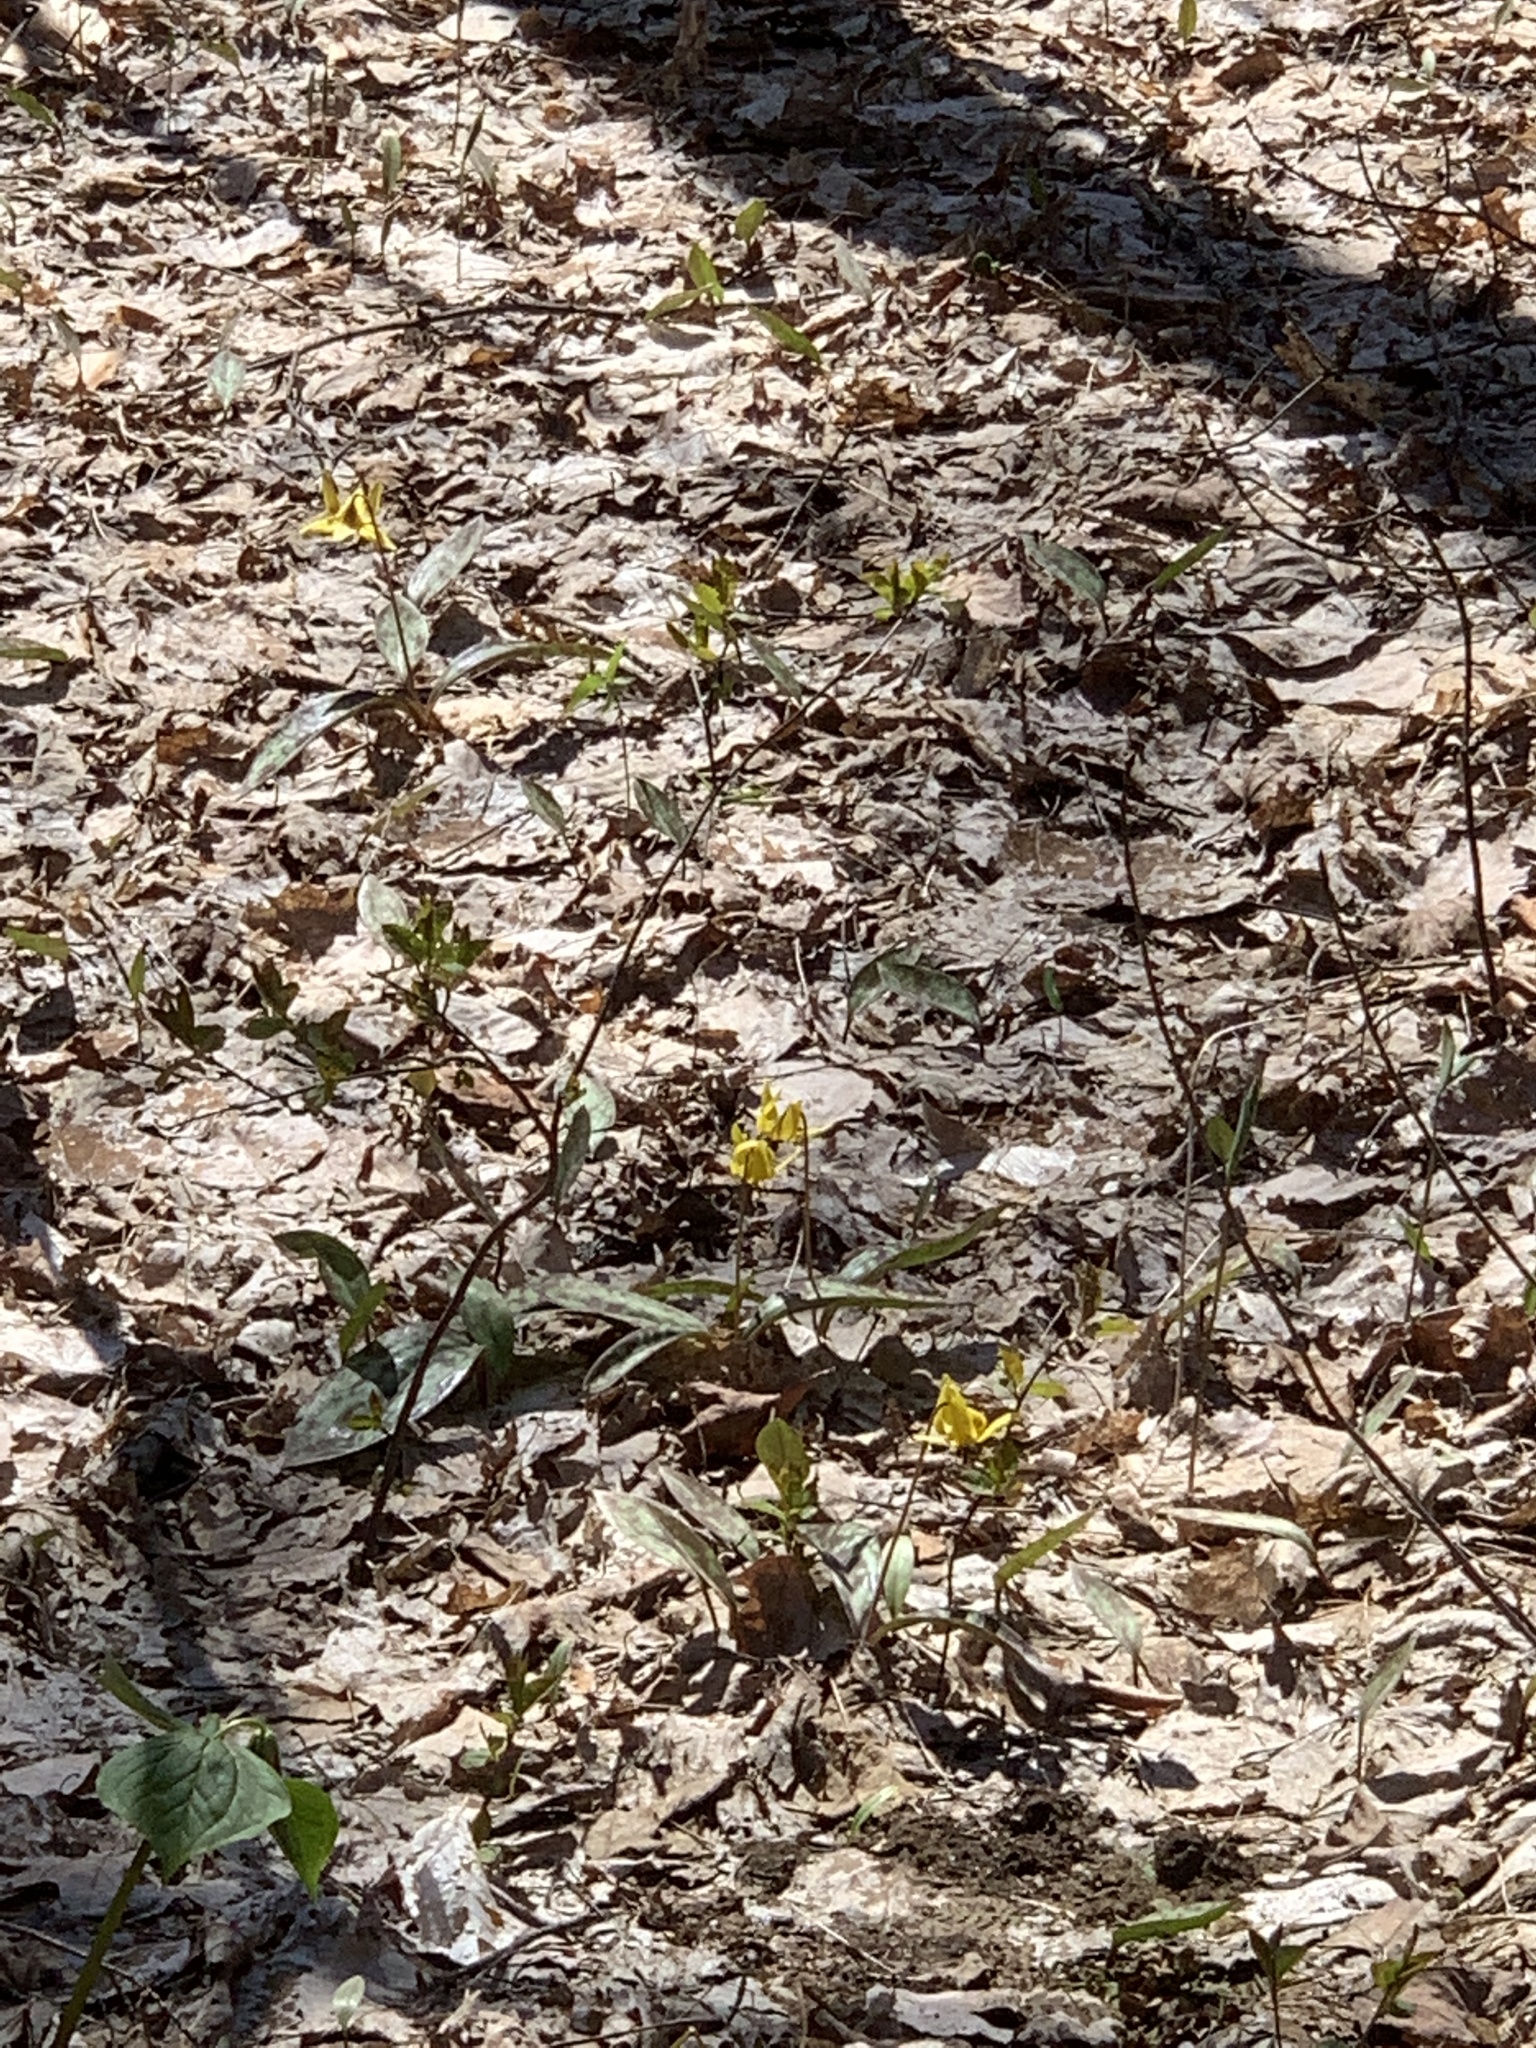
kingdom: Plantae
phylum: Tracheophyta
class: Liliopsida
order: Liliales
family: Liliaceae
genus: Erythronium
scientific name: Erythronium americanum
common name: Yellow adder's-tongue
